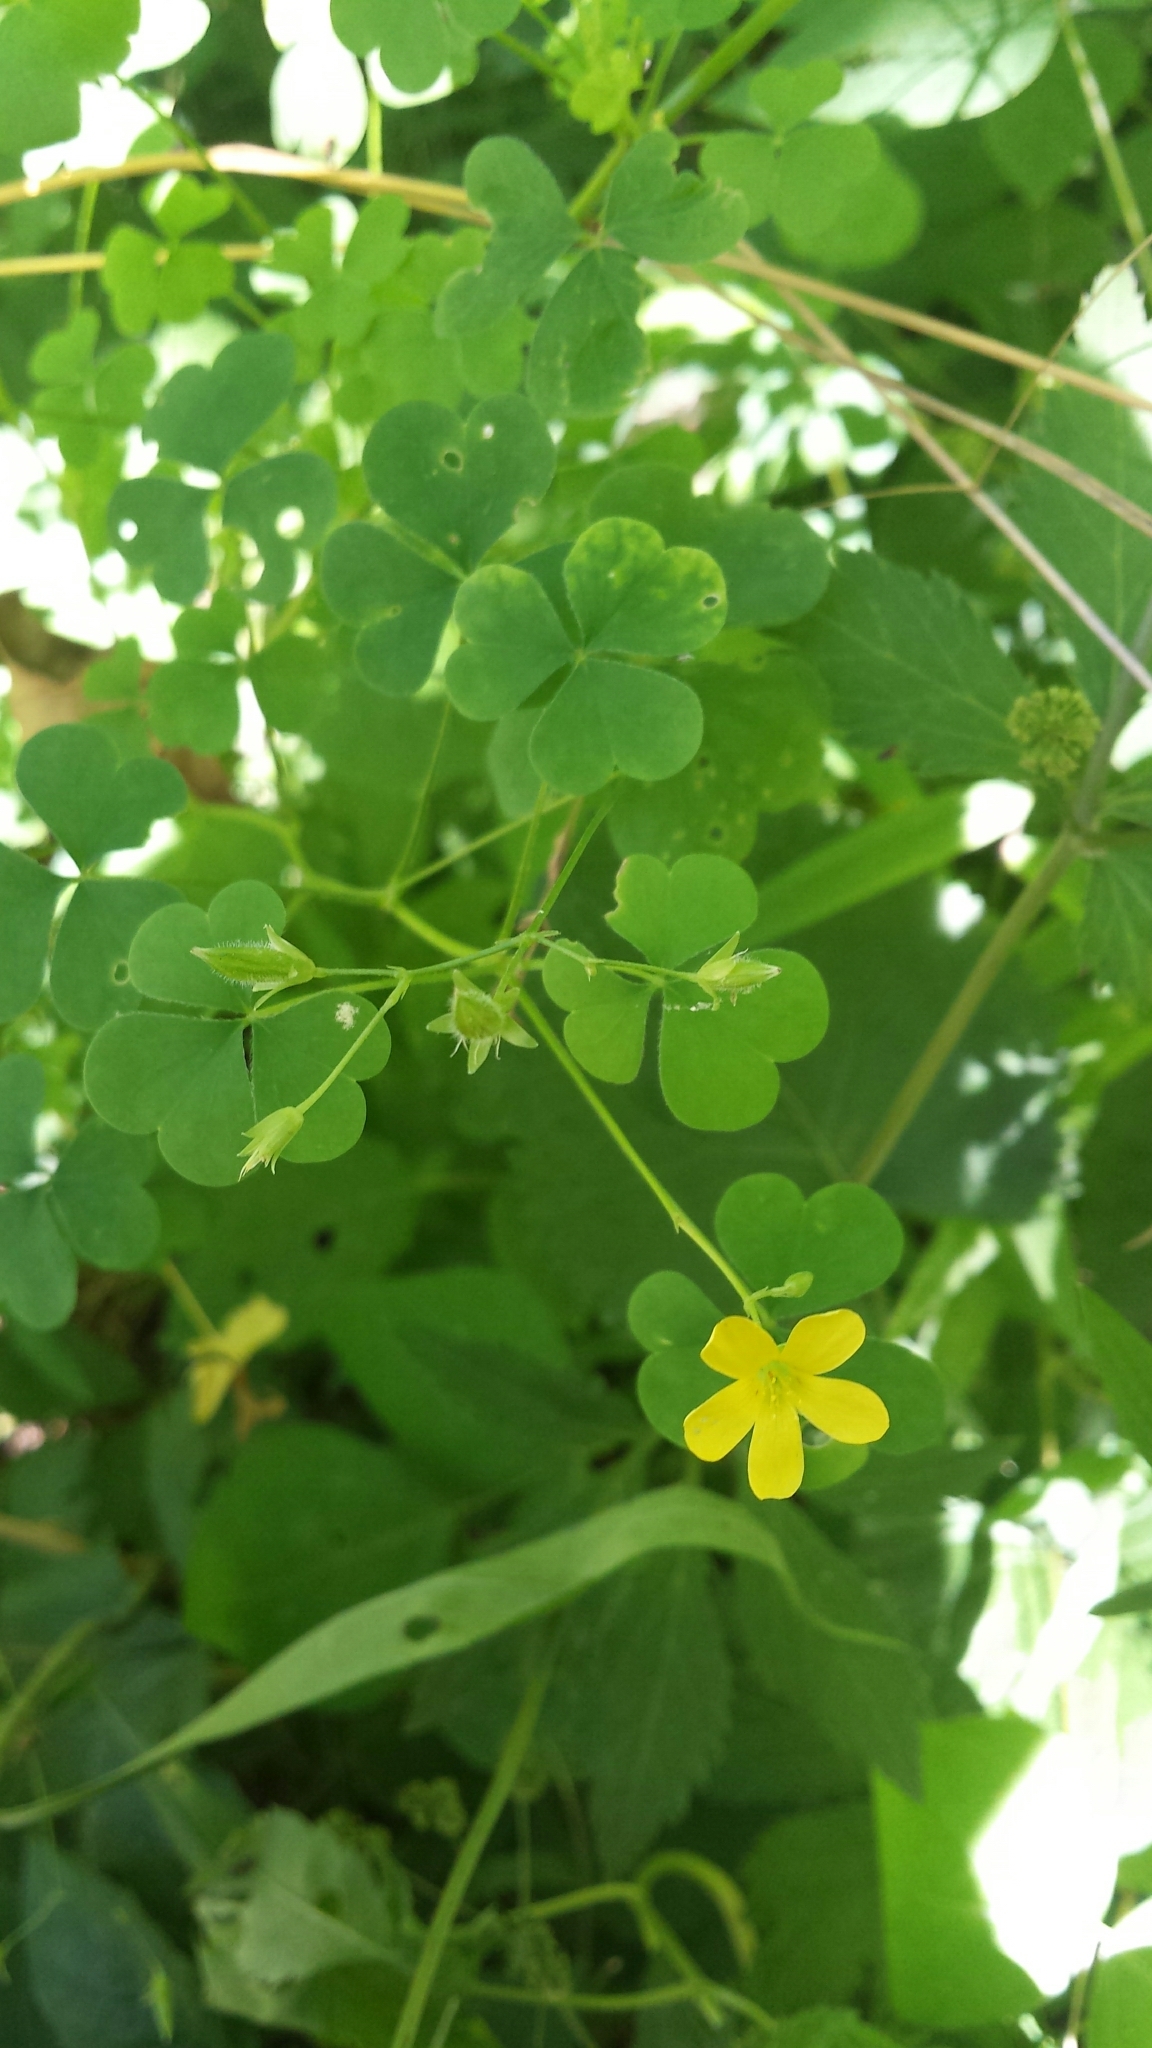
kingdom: Plantae
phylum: Tracheophyta
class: Magnoliopsida
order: Oxalidales
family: Oxalidaceae
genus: Oxalis
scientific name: Oxalis stricta
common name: Upright yellow-sorrel
